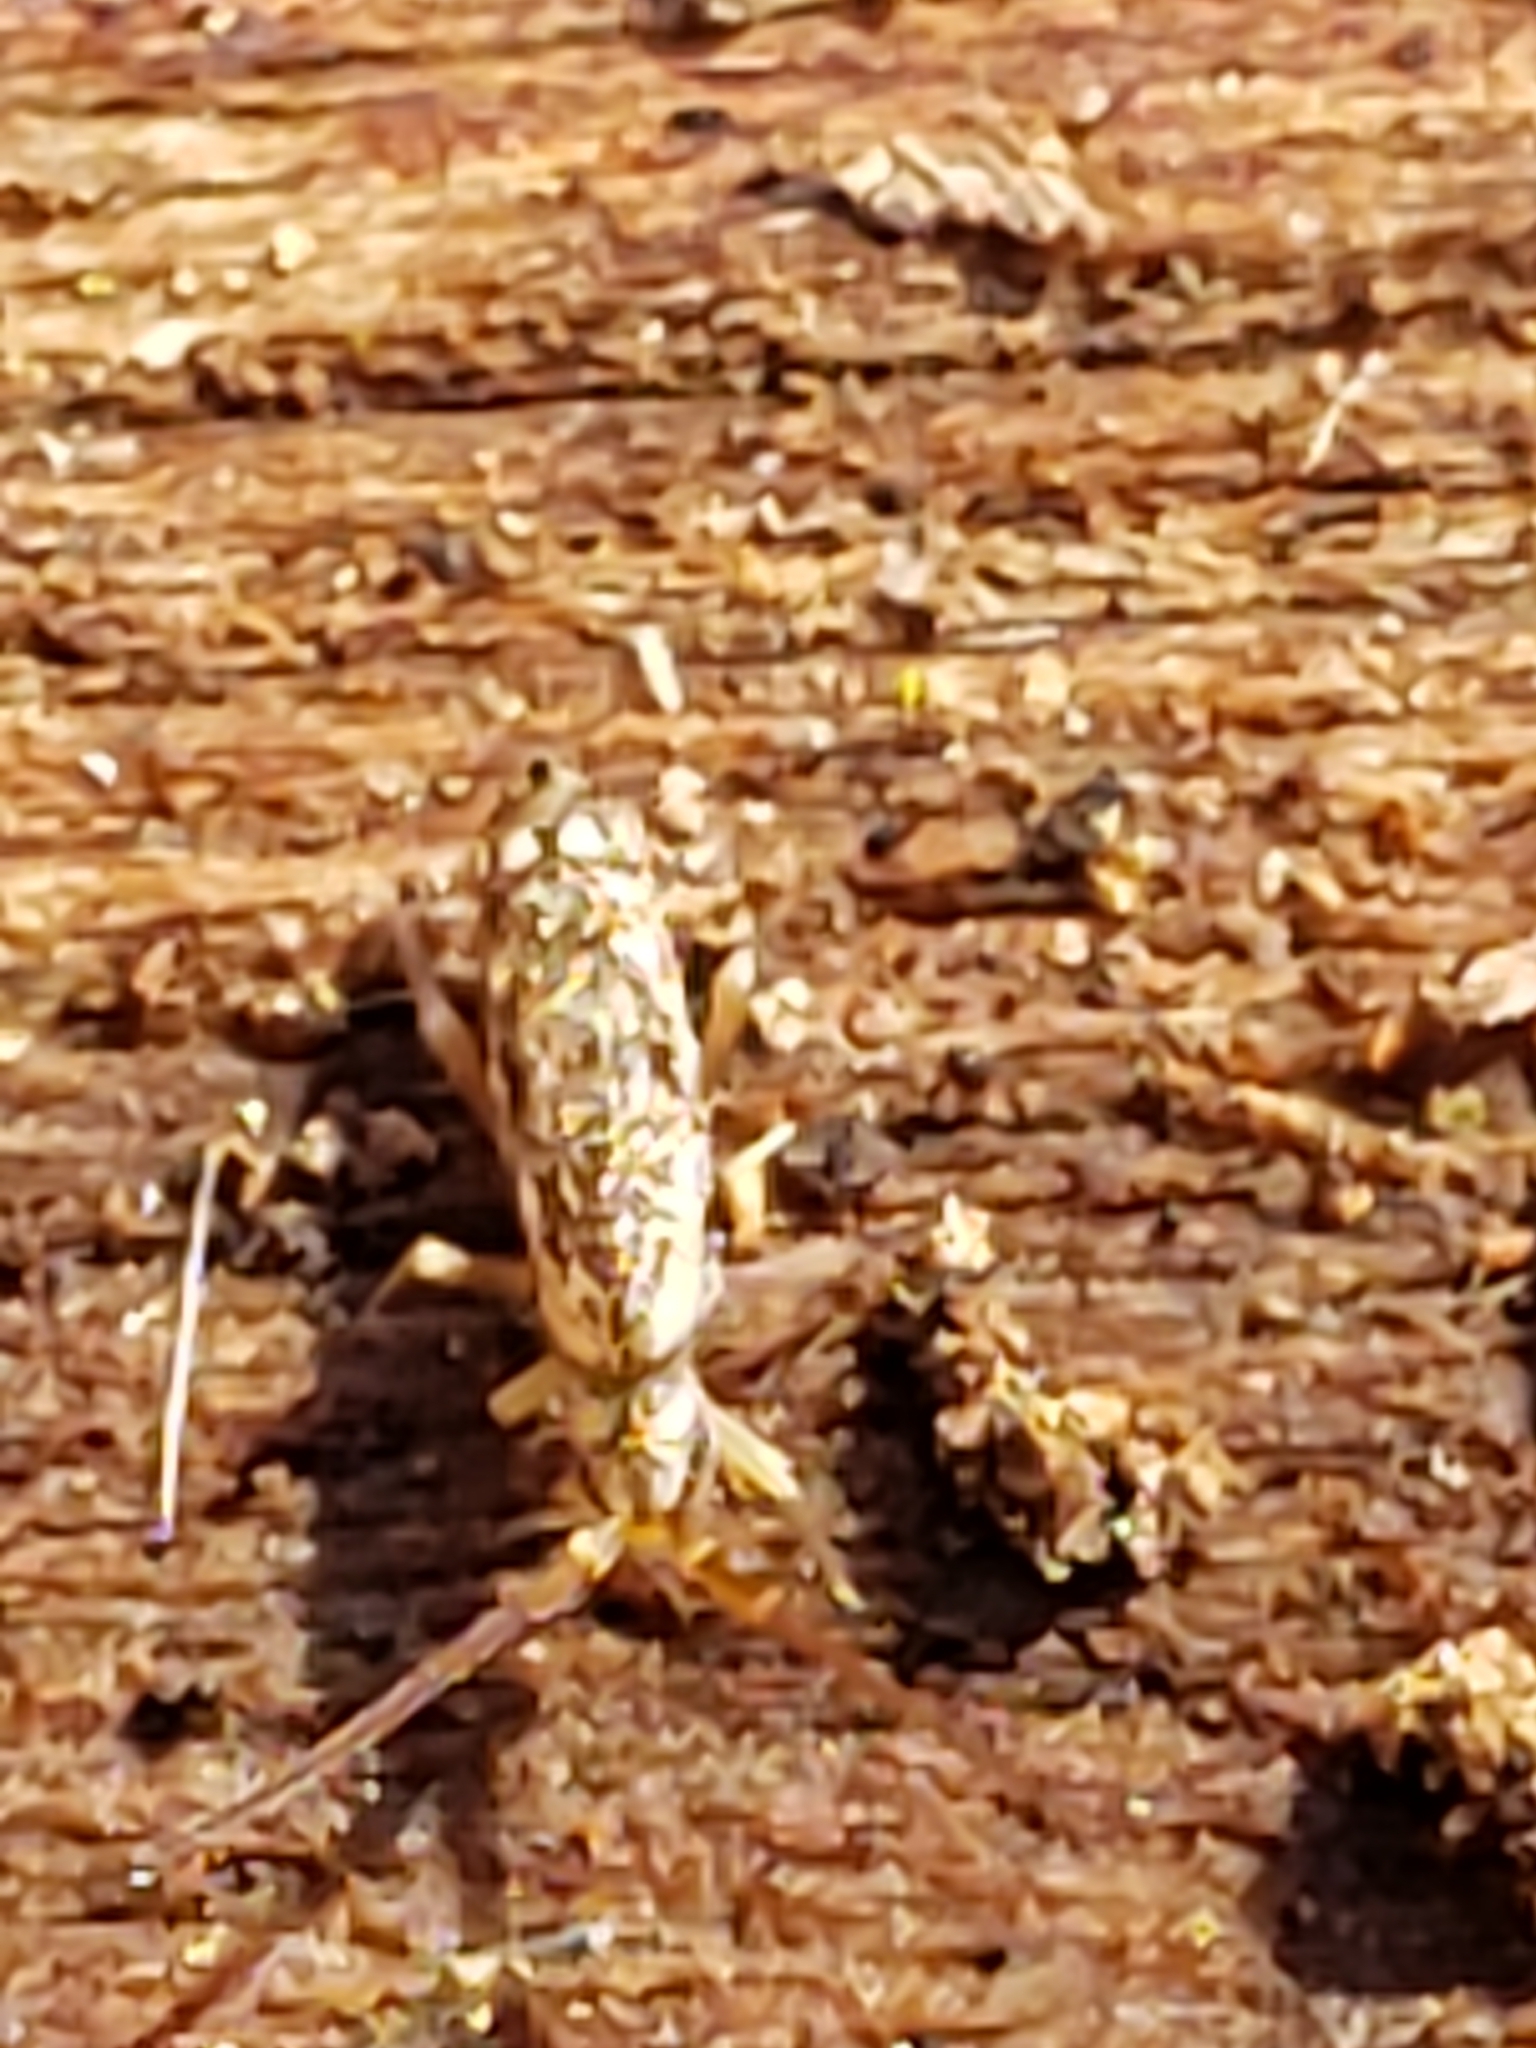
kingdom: Animalia
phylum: Arthropoda
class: Collembola
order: Entomobryomorpha
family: Tomoceridae
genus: Pogonognathellus
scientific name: Pogonognathellus elongatus
